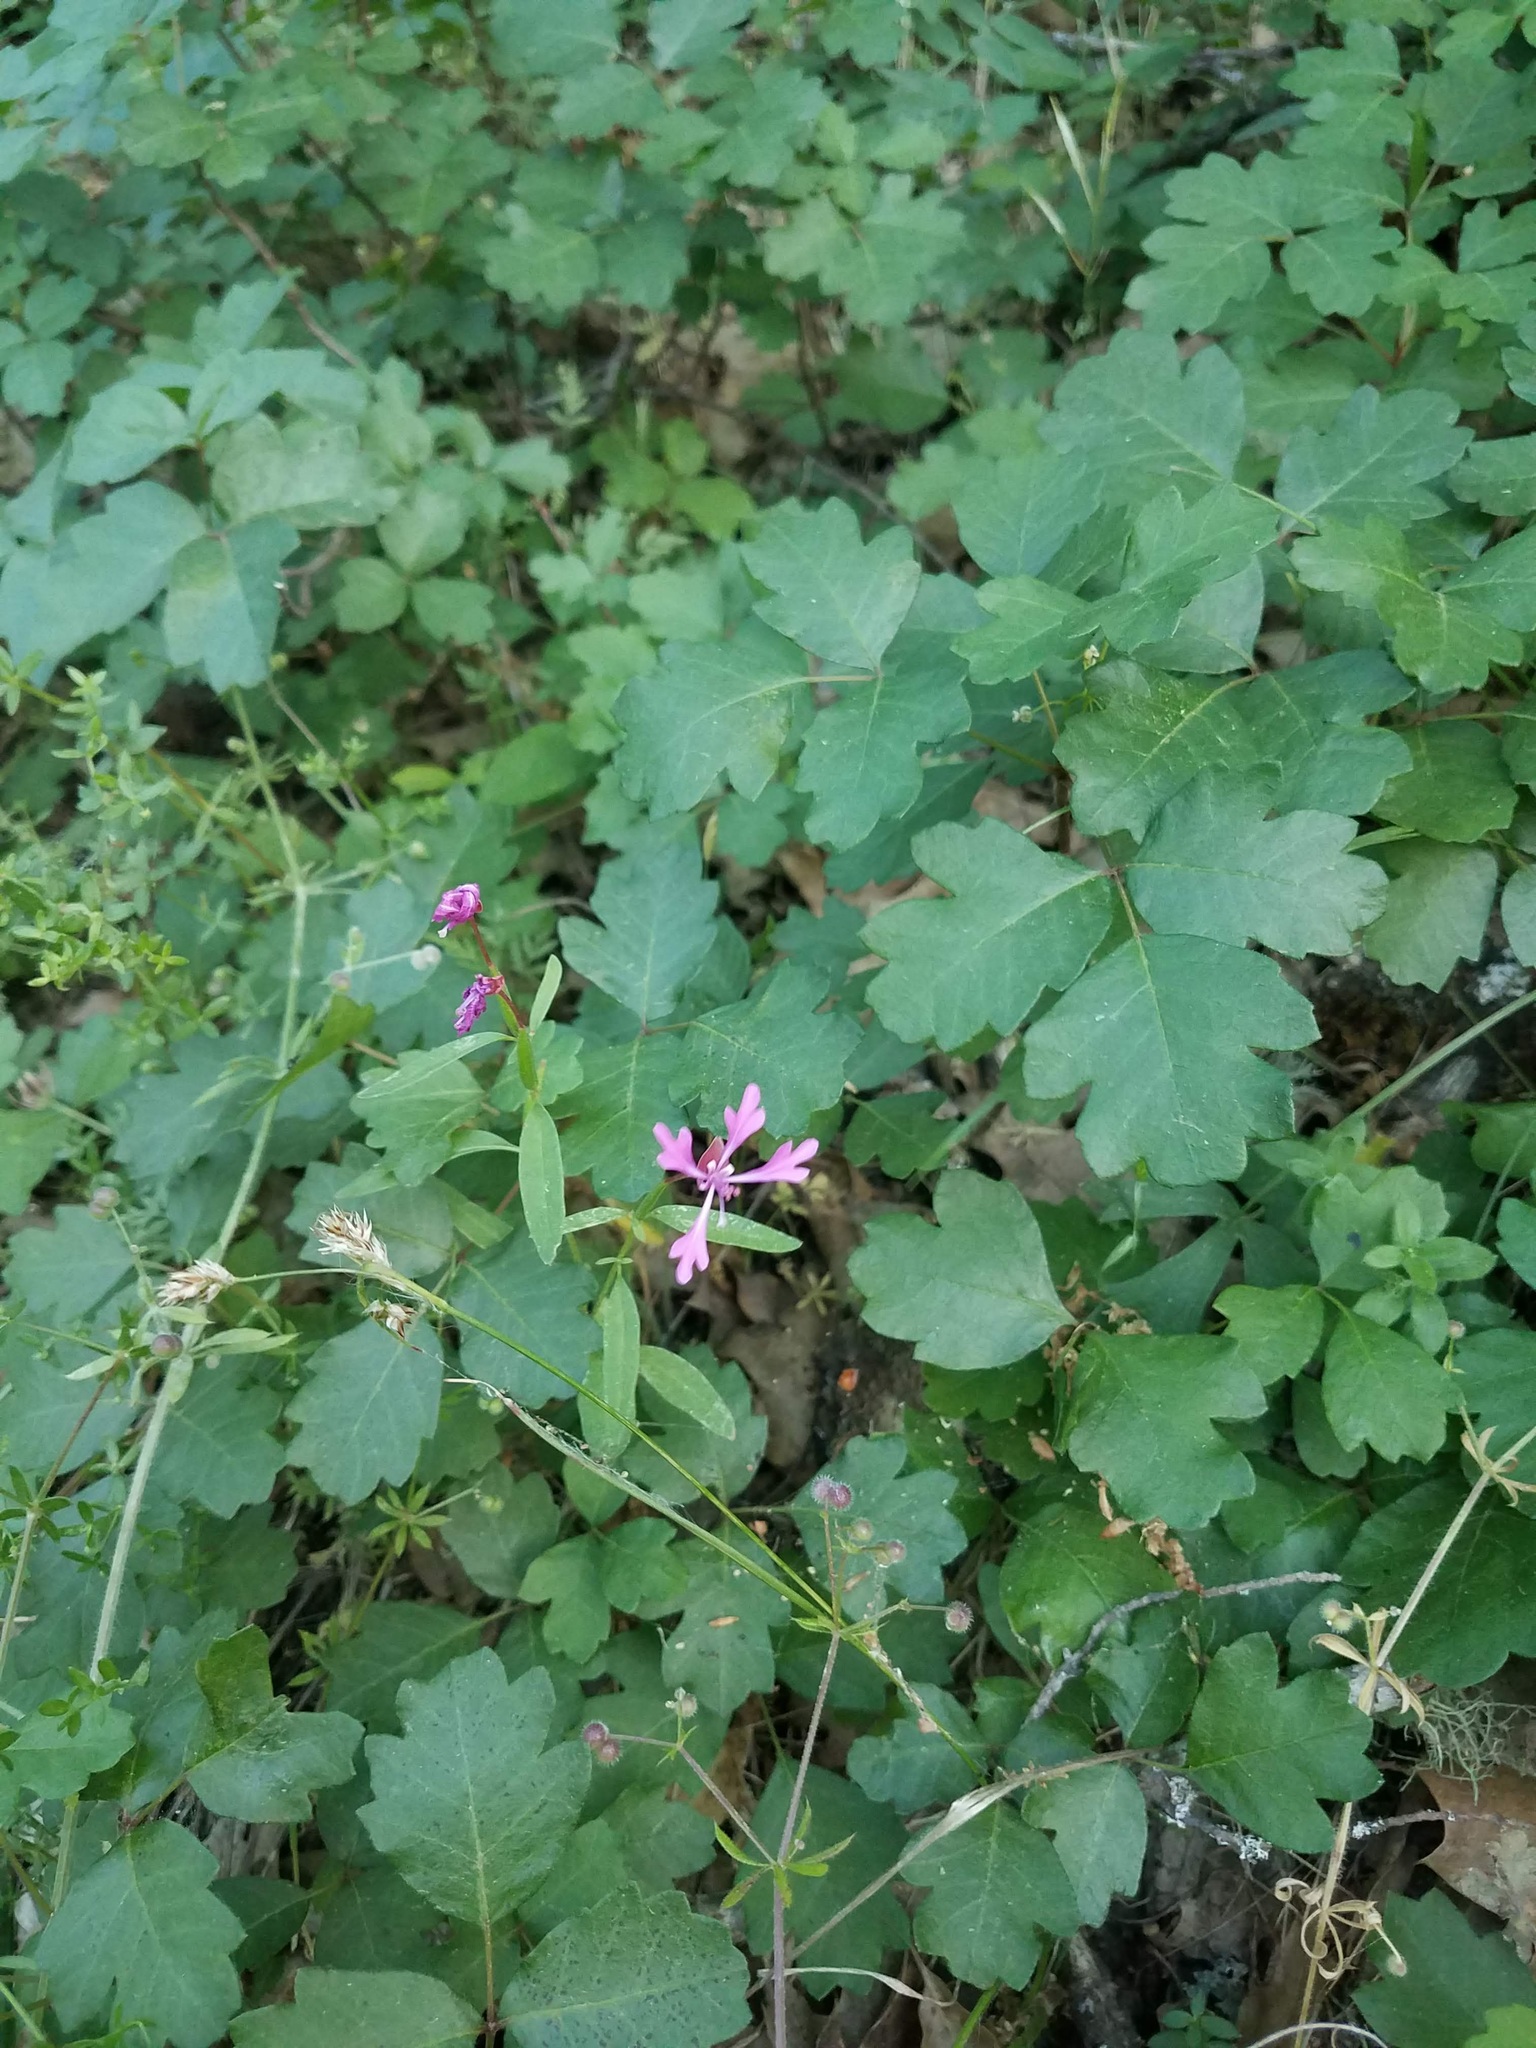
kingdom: Plantae
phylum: Tracheophyta
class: Magnoliopsida
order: Myrtales
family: Onagraceae
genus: Clarkia
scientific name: Clarkia concinna
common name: Red-ribbons
